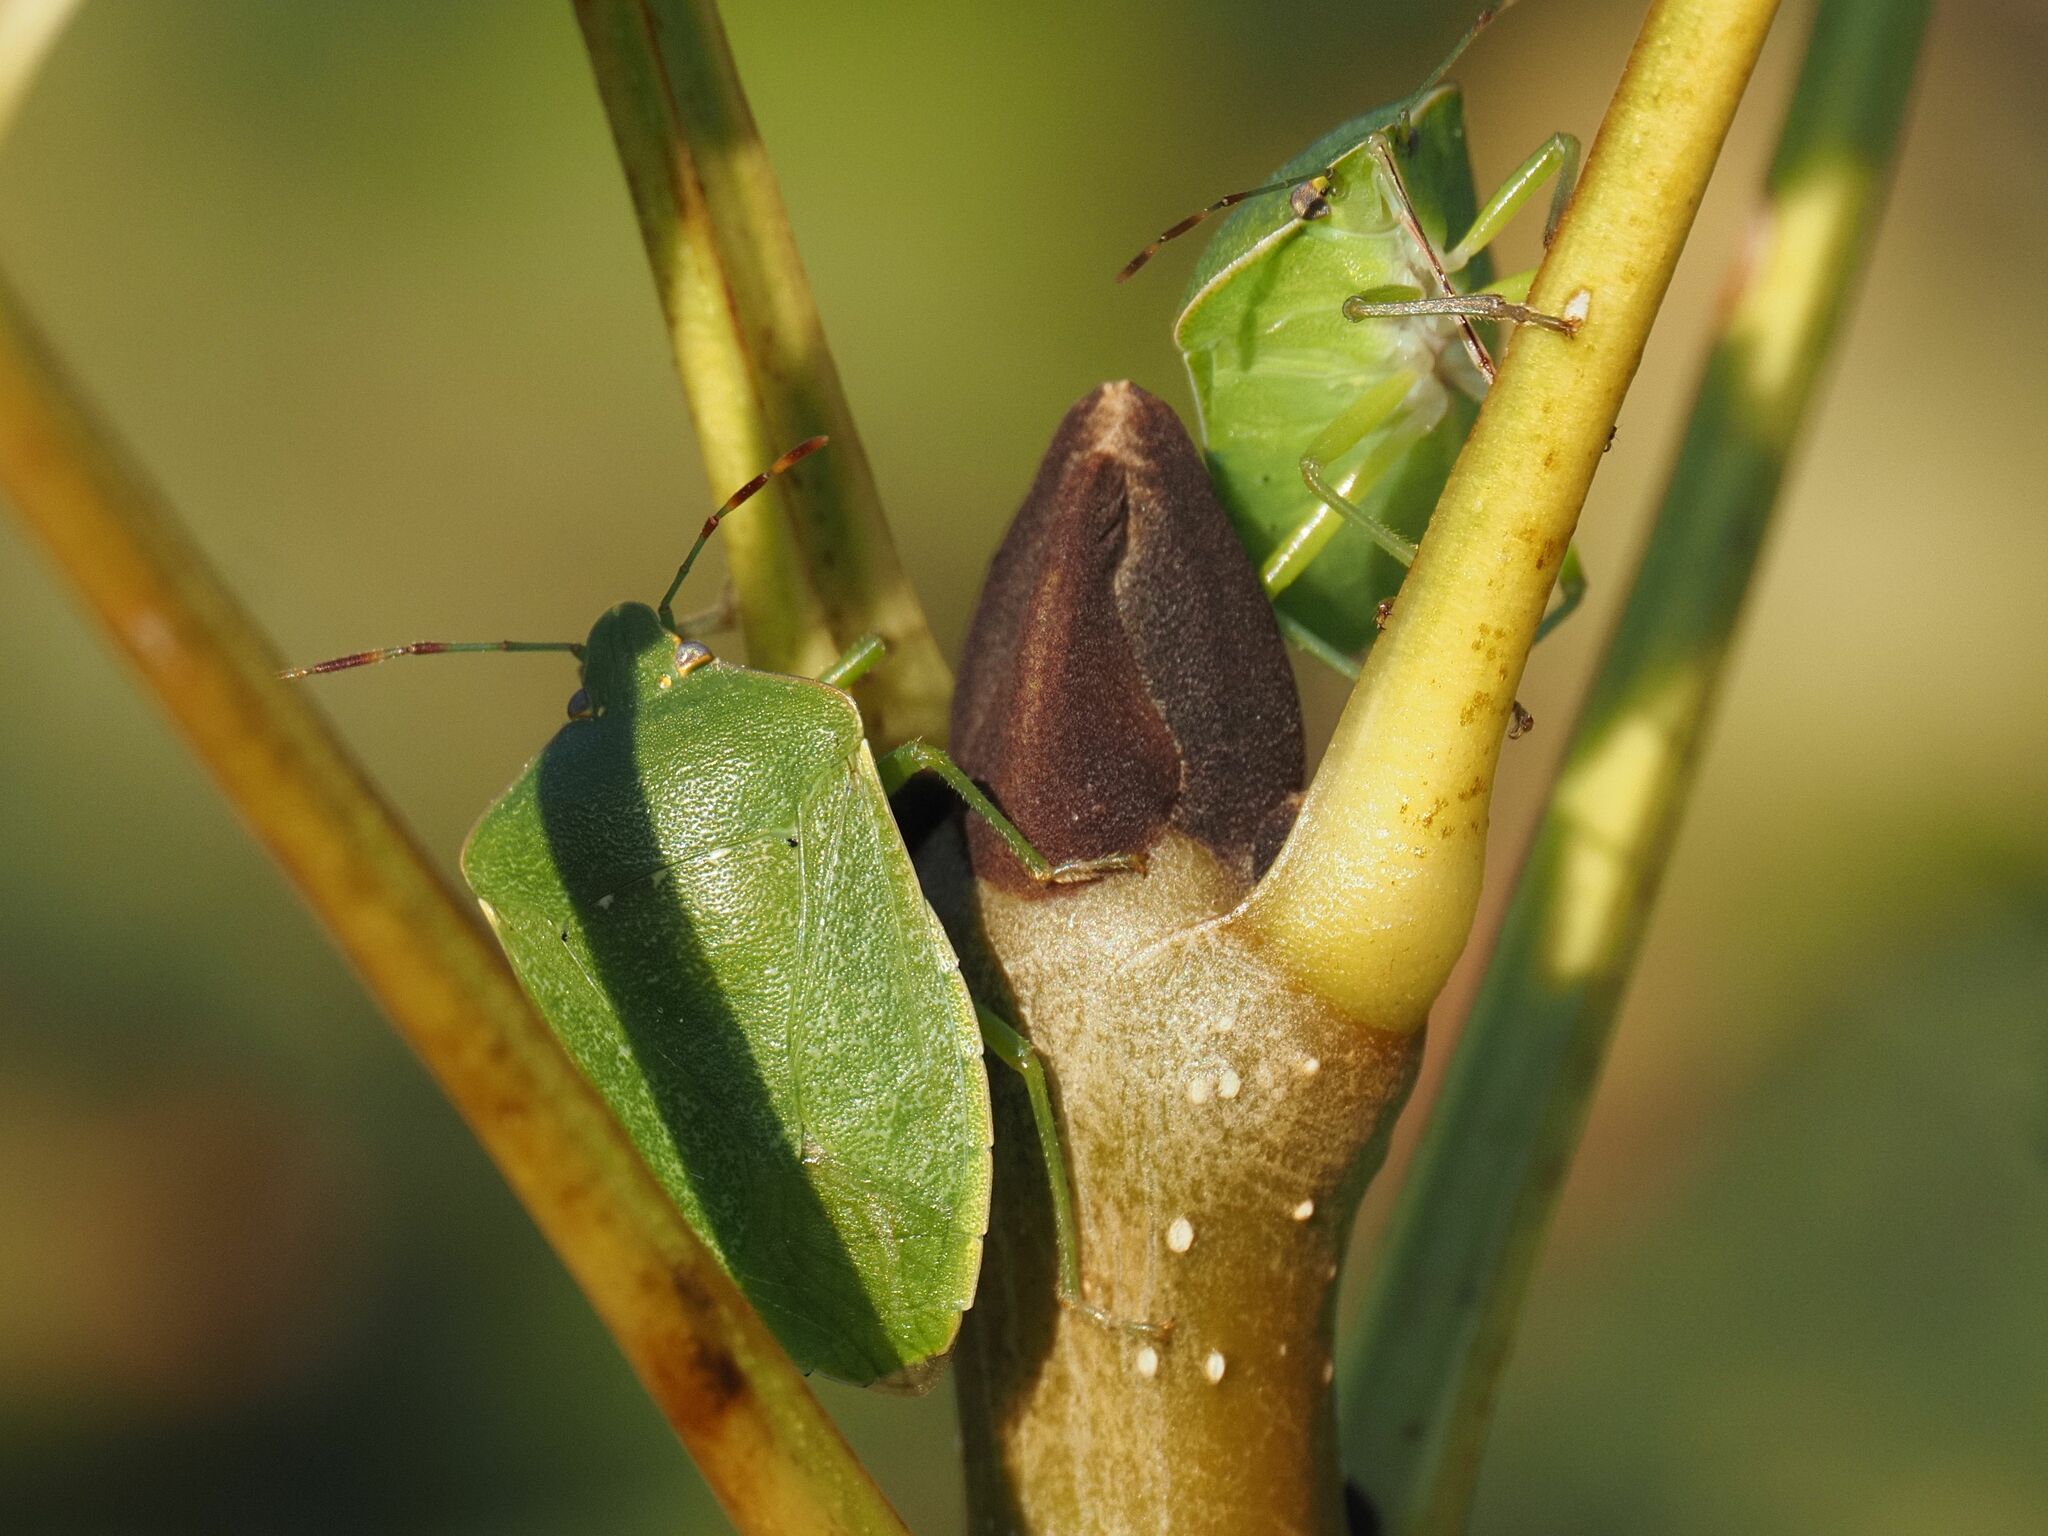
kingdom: Animalia
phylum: Arthropoda
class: Insecta
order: Hemiptera
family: Pentatomidae
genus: Nezara
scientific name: Nezara viridula
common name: Southern green stink bug
